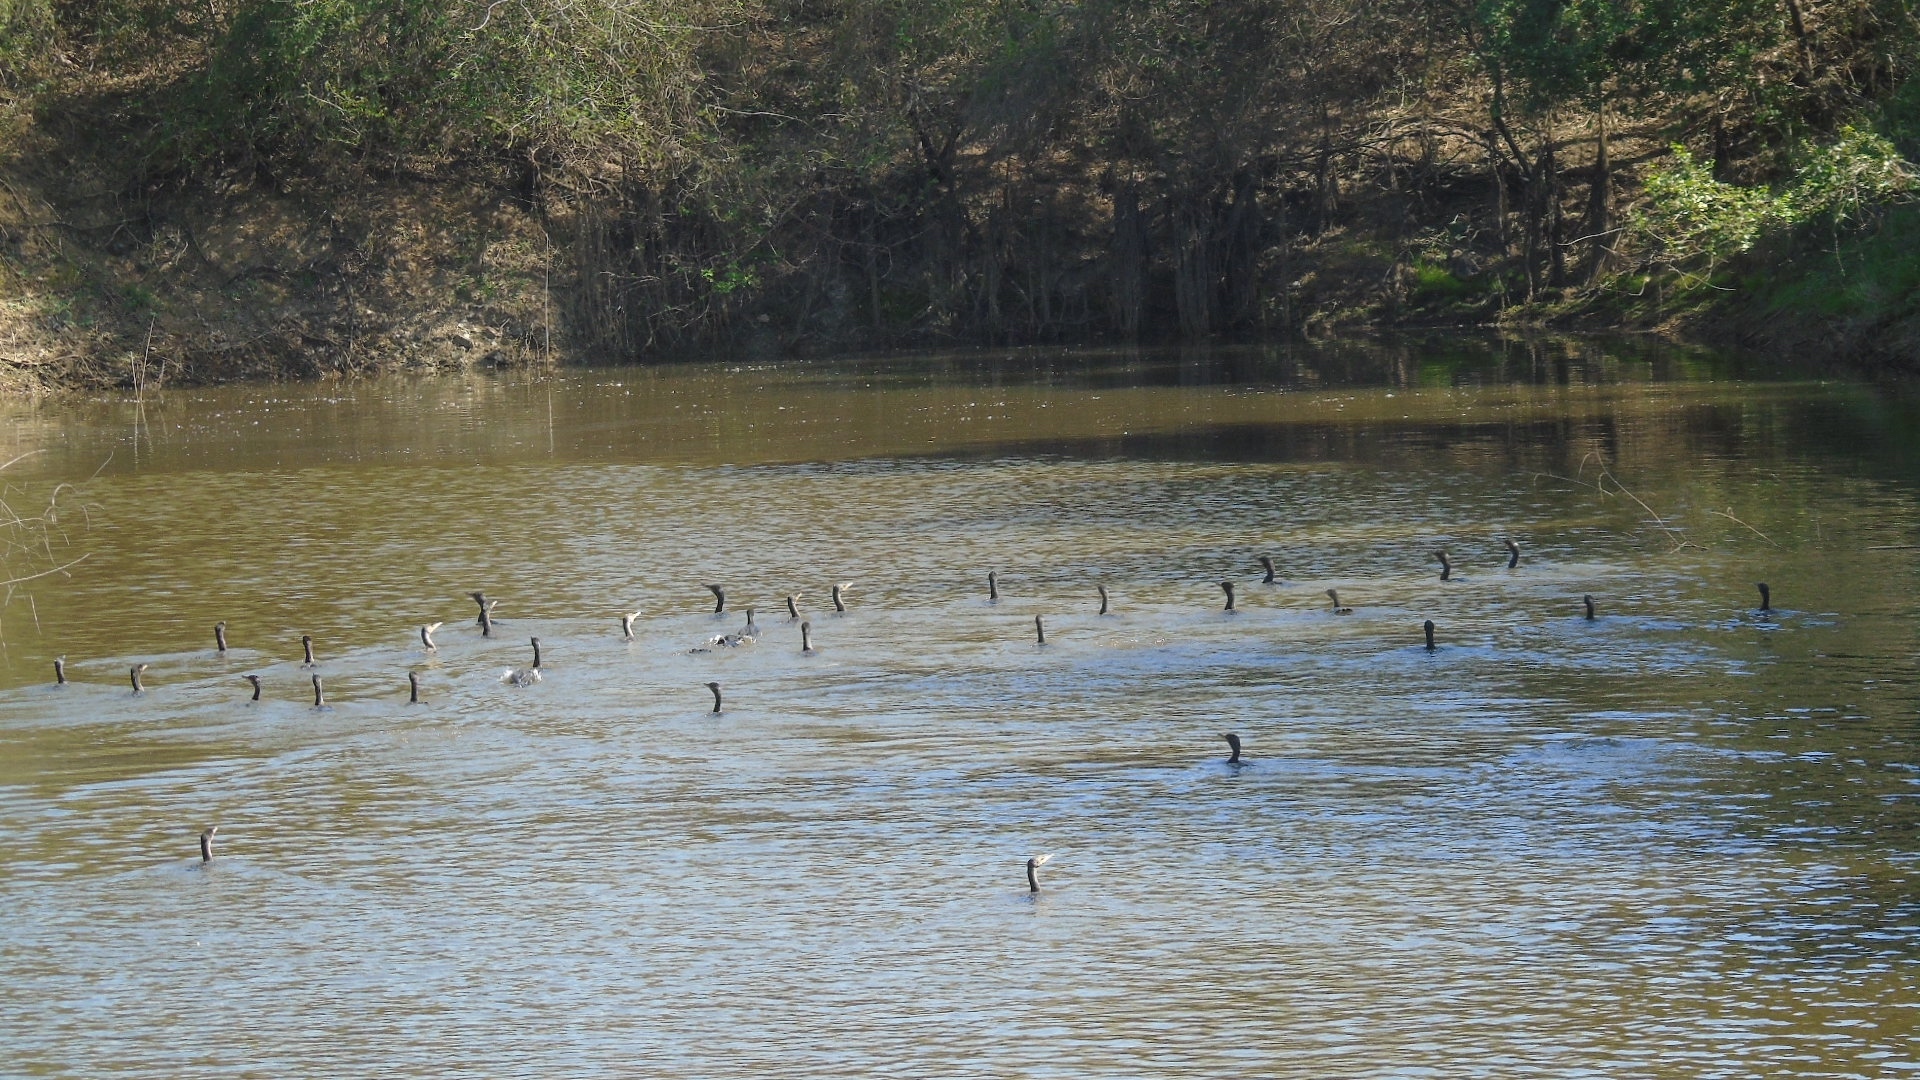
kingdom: Animalia
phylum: Chordata
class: Aves
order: Suliformes
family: Phalacrocoracidae
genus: Phalacrocorax
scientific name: Phalacrocorax brasilianus
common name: Neotropic cormorant
